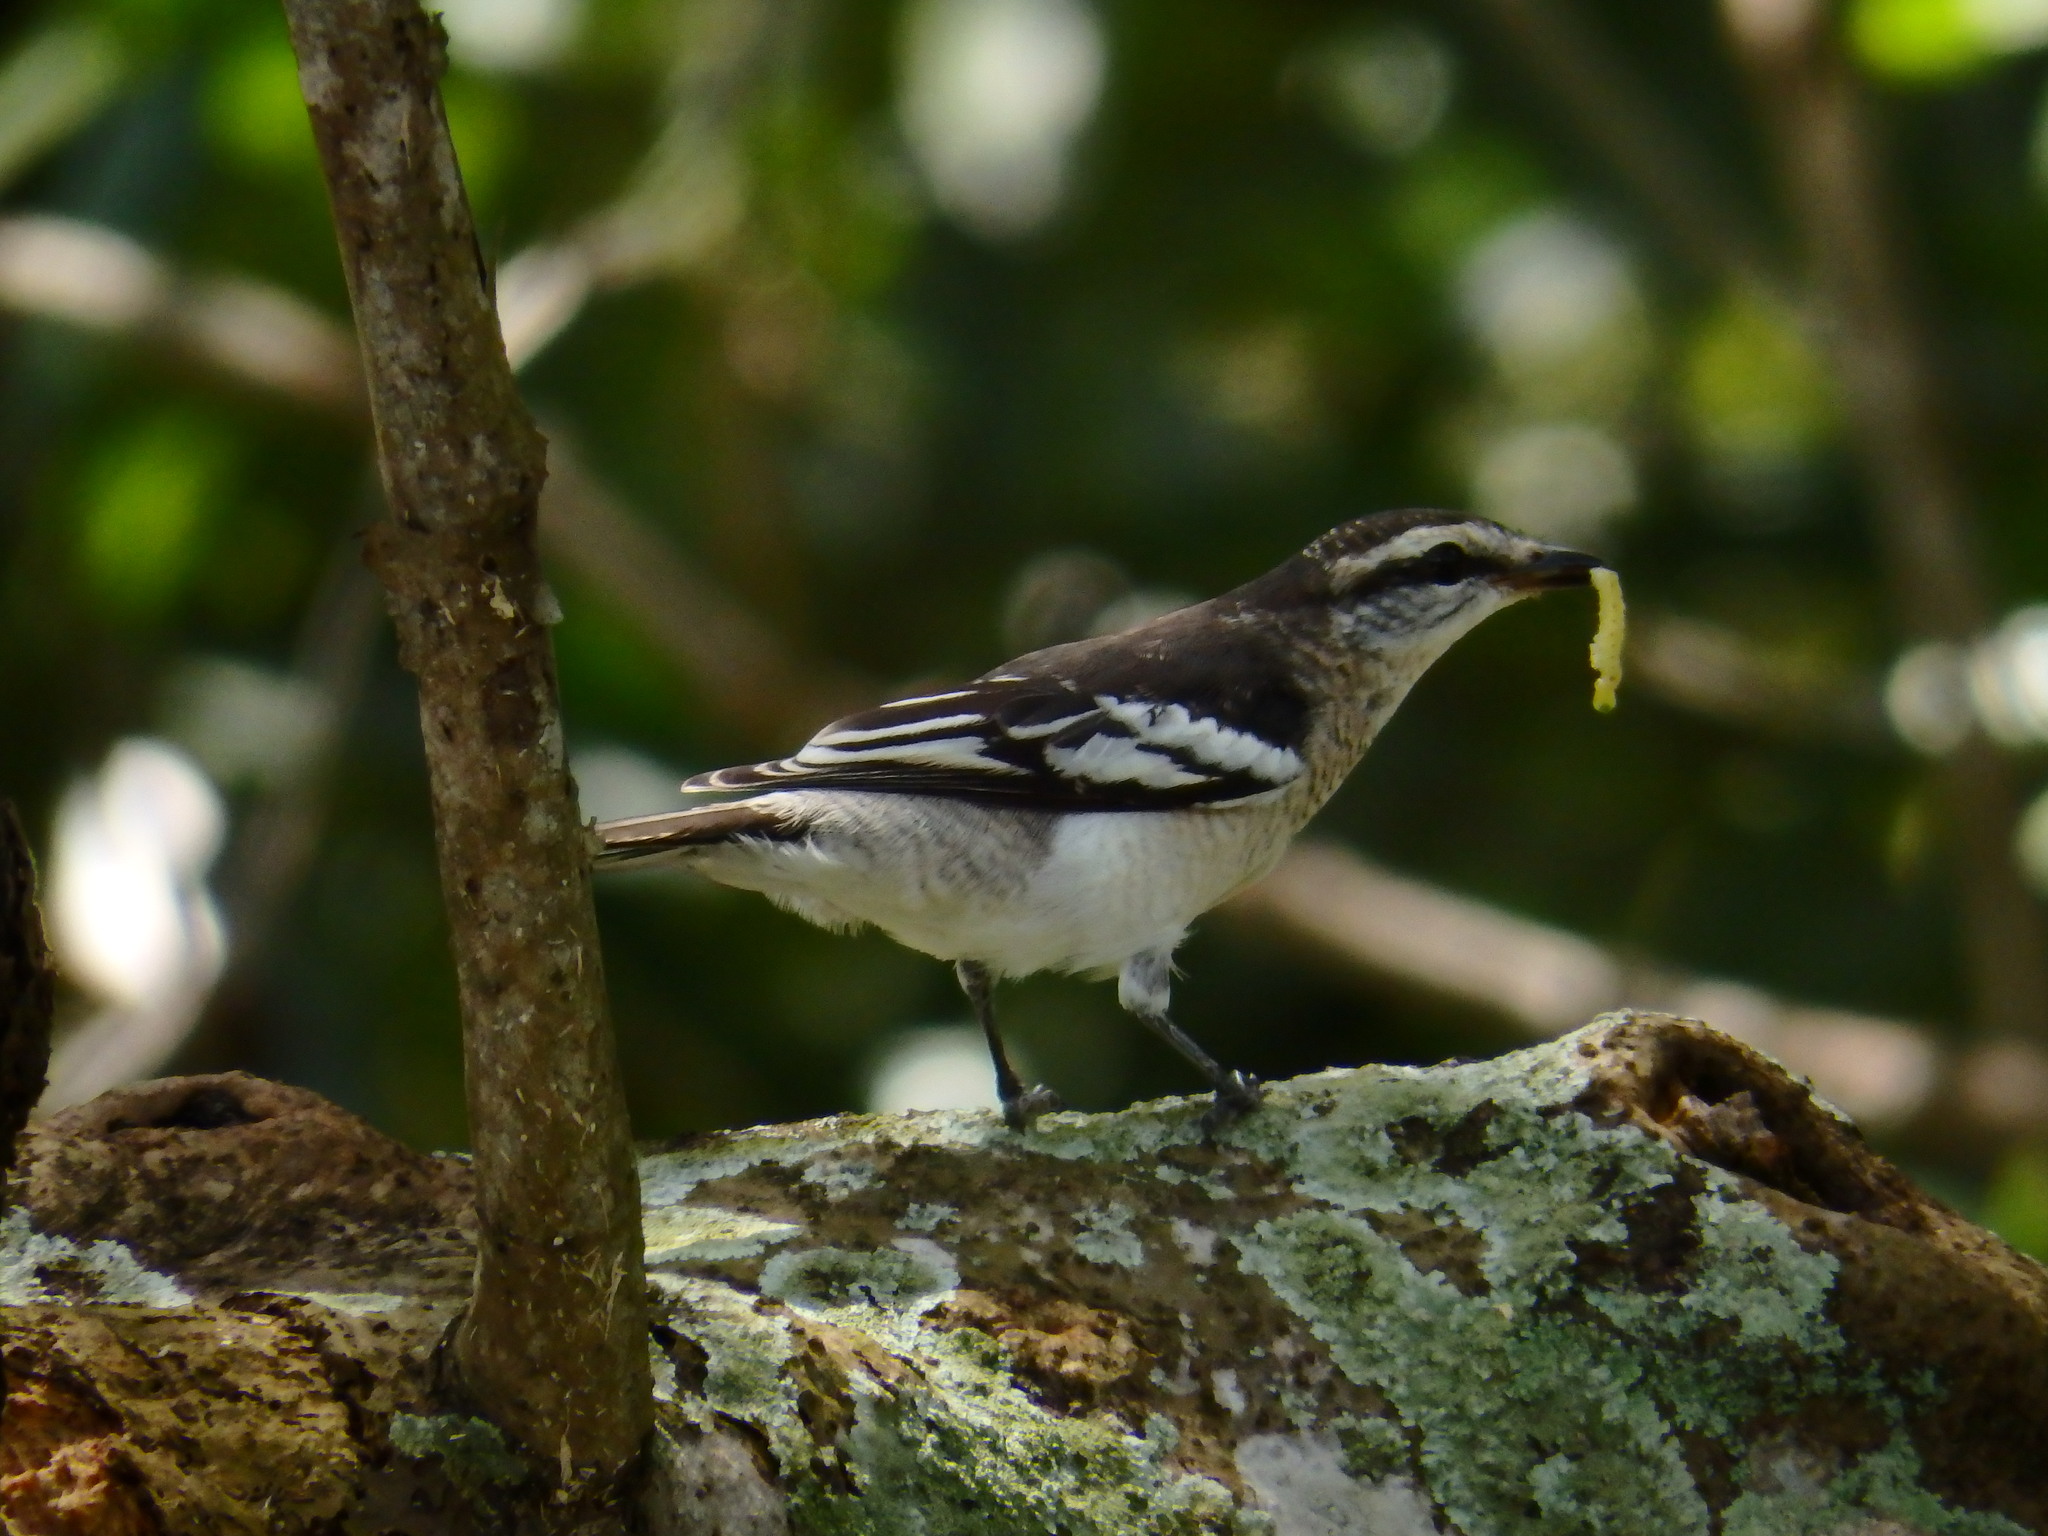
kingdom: Animalia
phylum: Chordata
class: Aves
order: Passeriformes
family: Campephagidae
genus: Lalage
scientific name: Lalage nigra
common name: Pied triller
